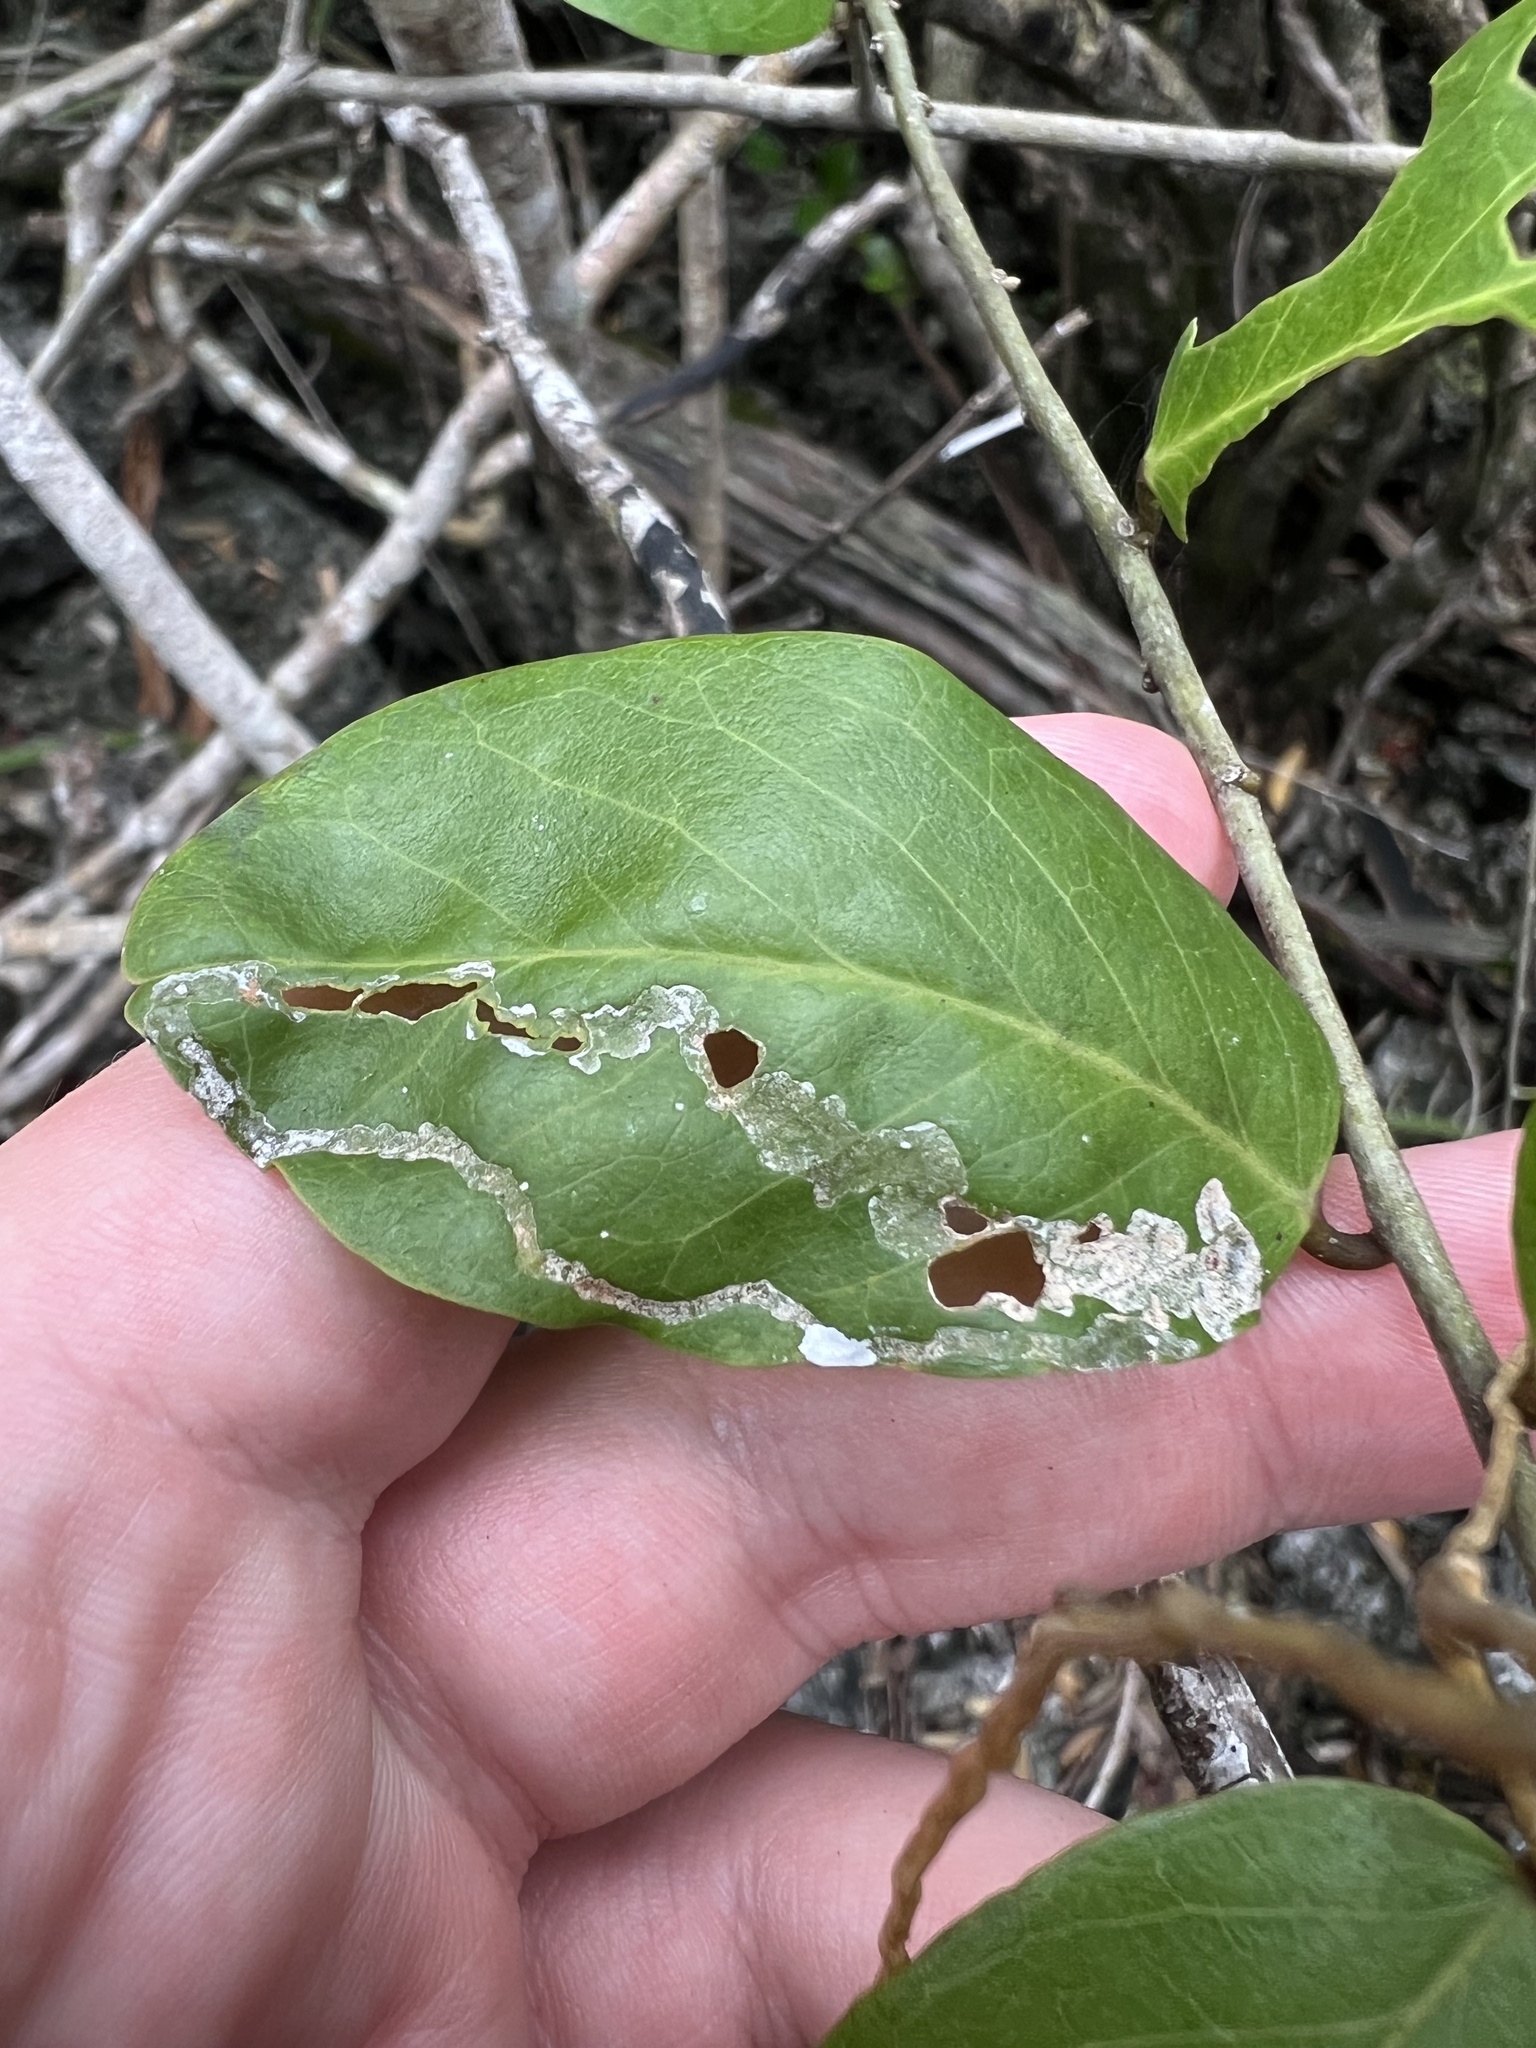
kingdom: Animalia
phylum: Arthropoda
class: Insecta
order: Diptera
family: Agromyzidae
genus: Liriomyza
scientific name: Liriomyza schmidti
